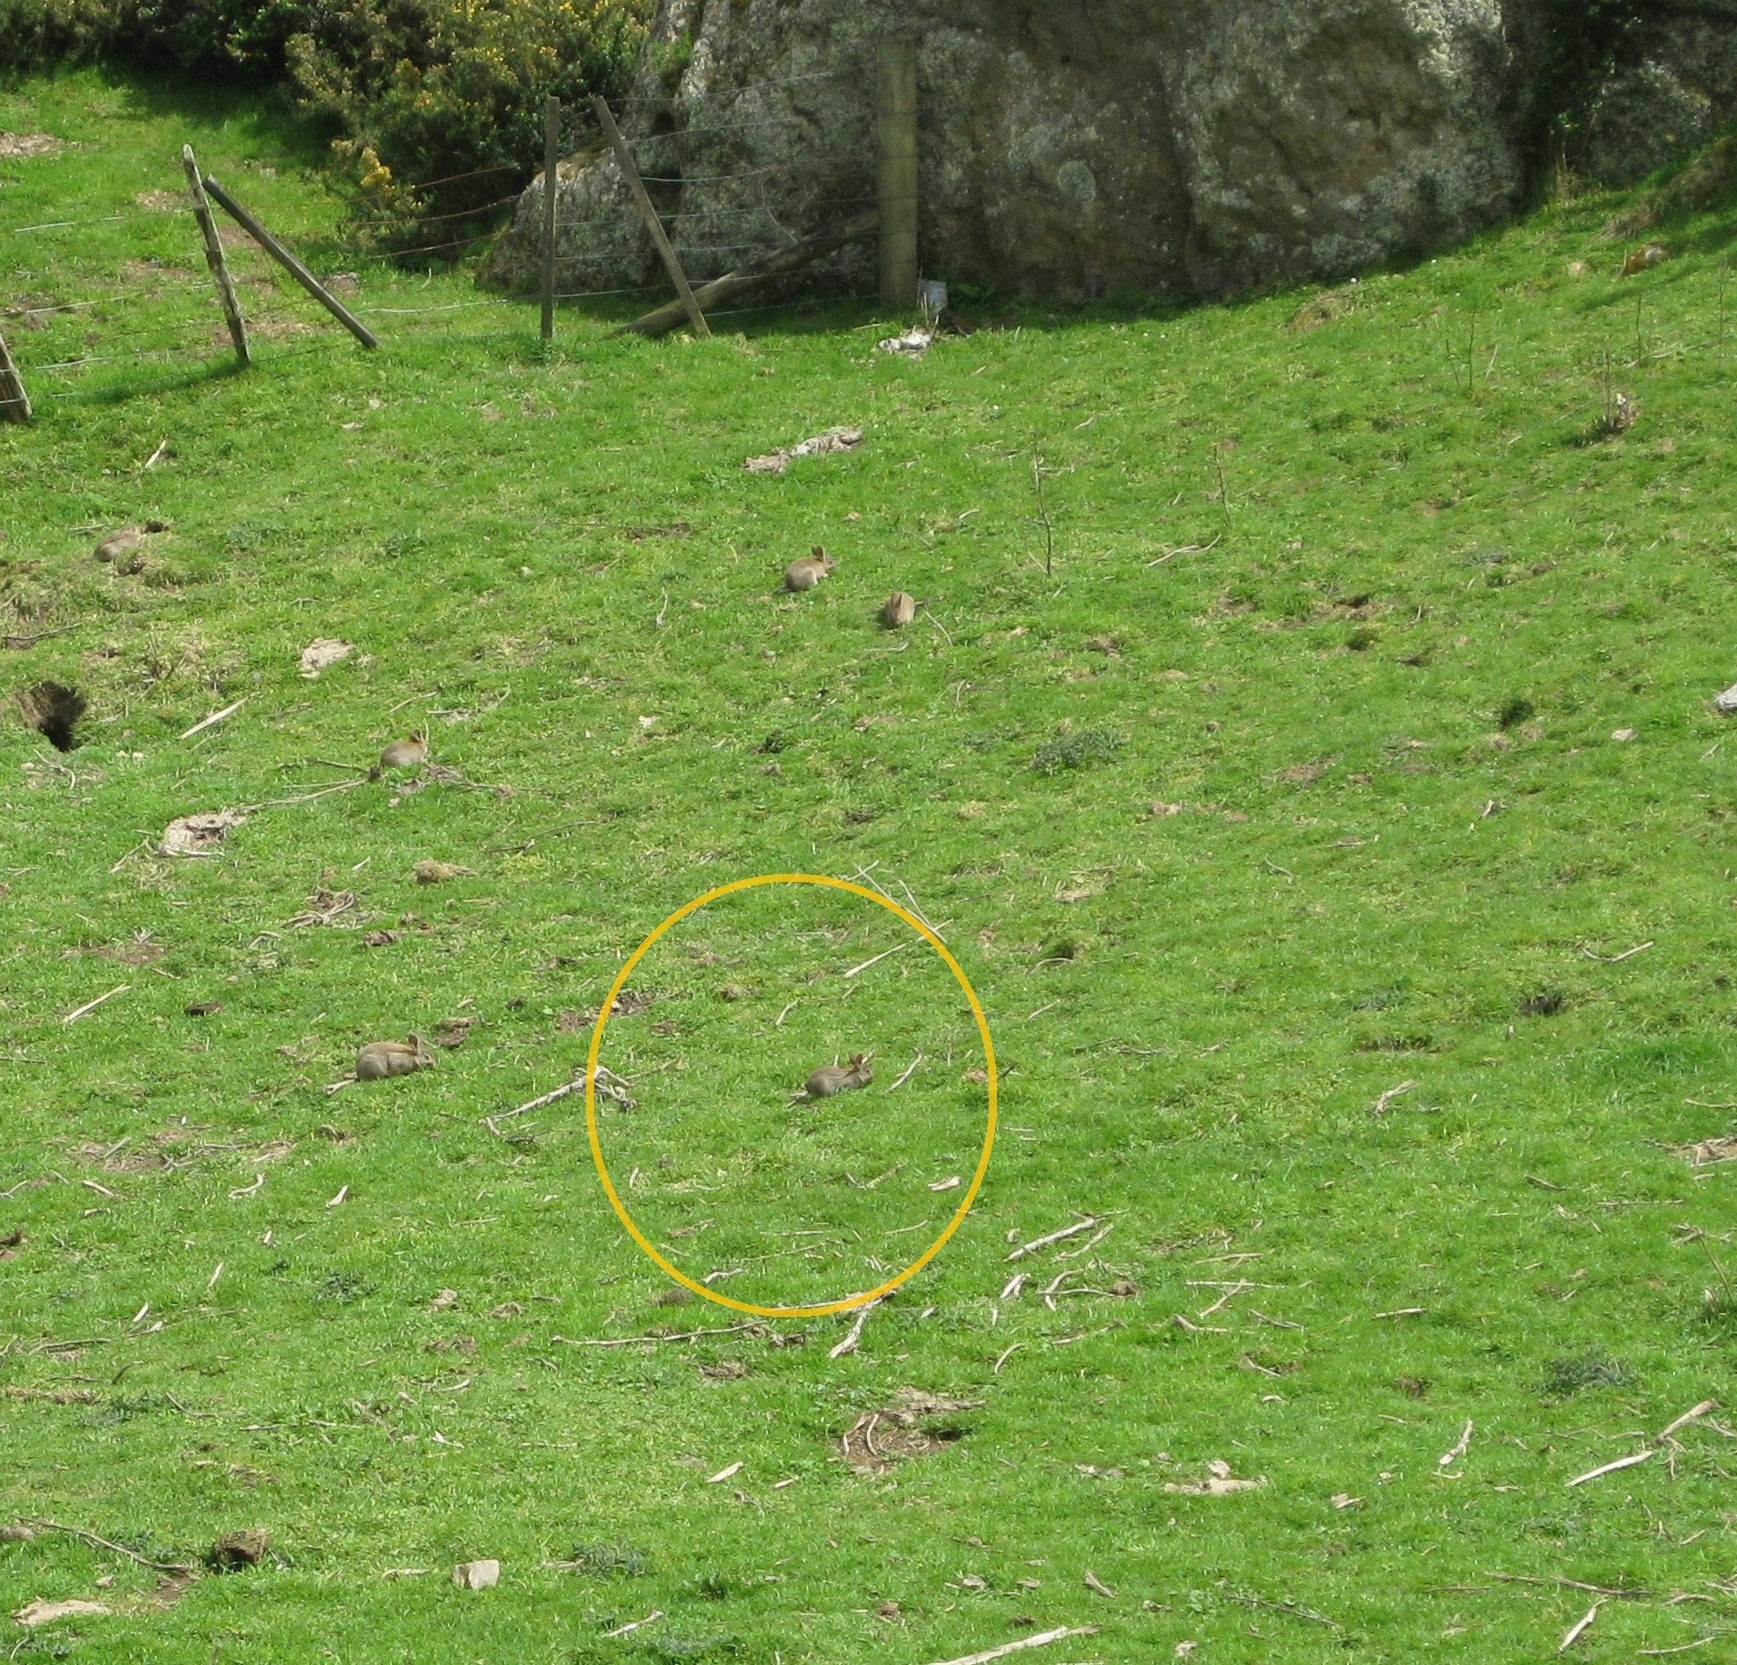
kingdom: Animalia
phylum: Chordata
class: Mammalia
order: Lagomorpha
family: Leporidae
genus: Oryctolagus
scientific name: Oryctolagus cuniculus
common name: European rabbit
